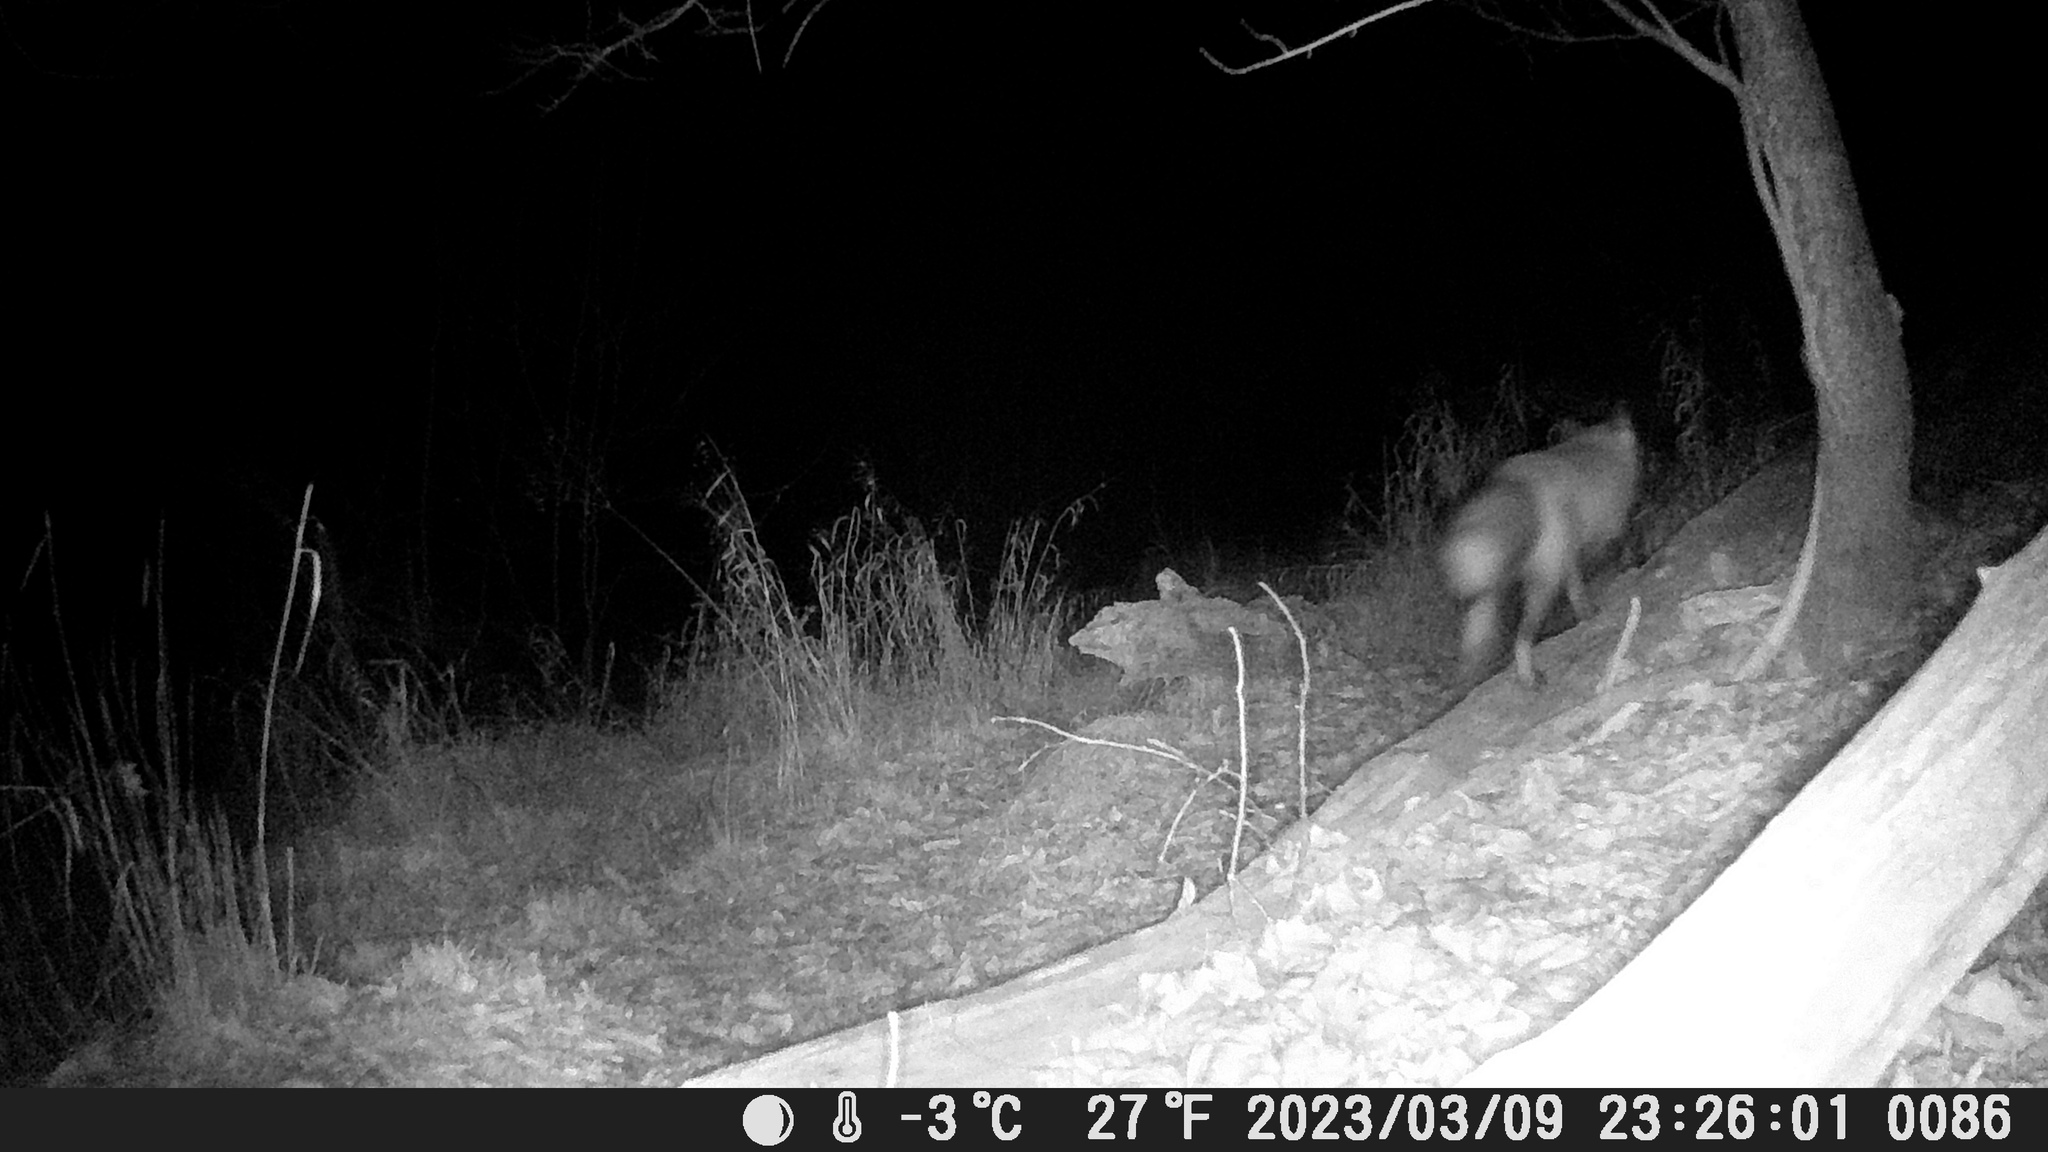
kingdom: Animalia
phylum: Chordata
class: Mammalia
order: Carnivora
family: Canidae
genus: Vulpes
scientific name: Vulpes vulpes
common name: Red fox
